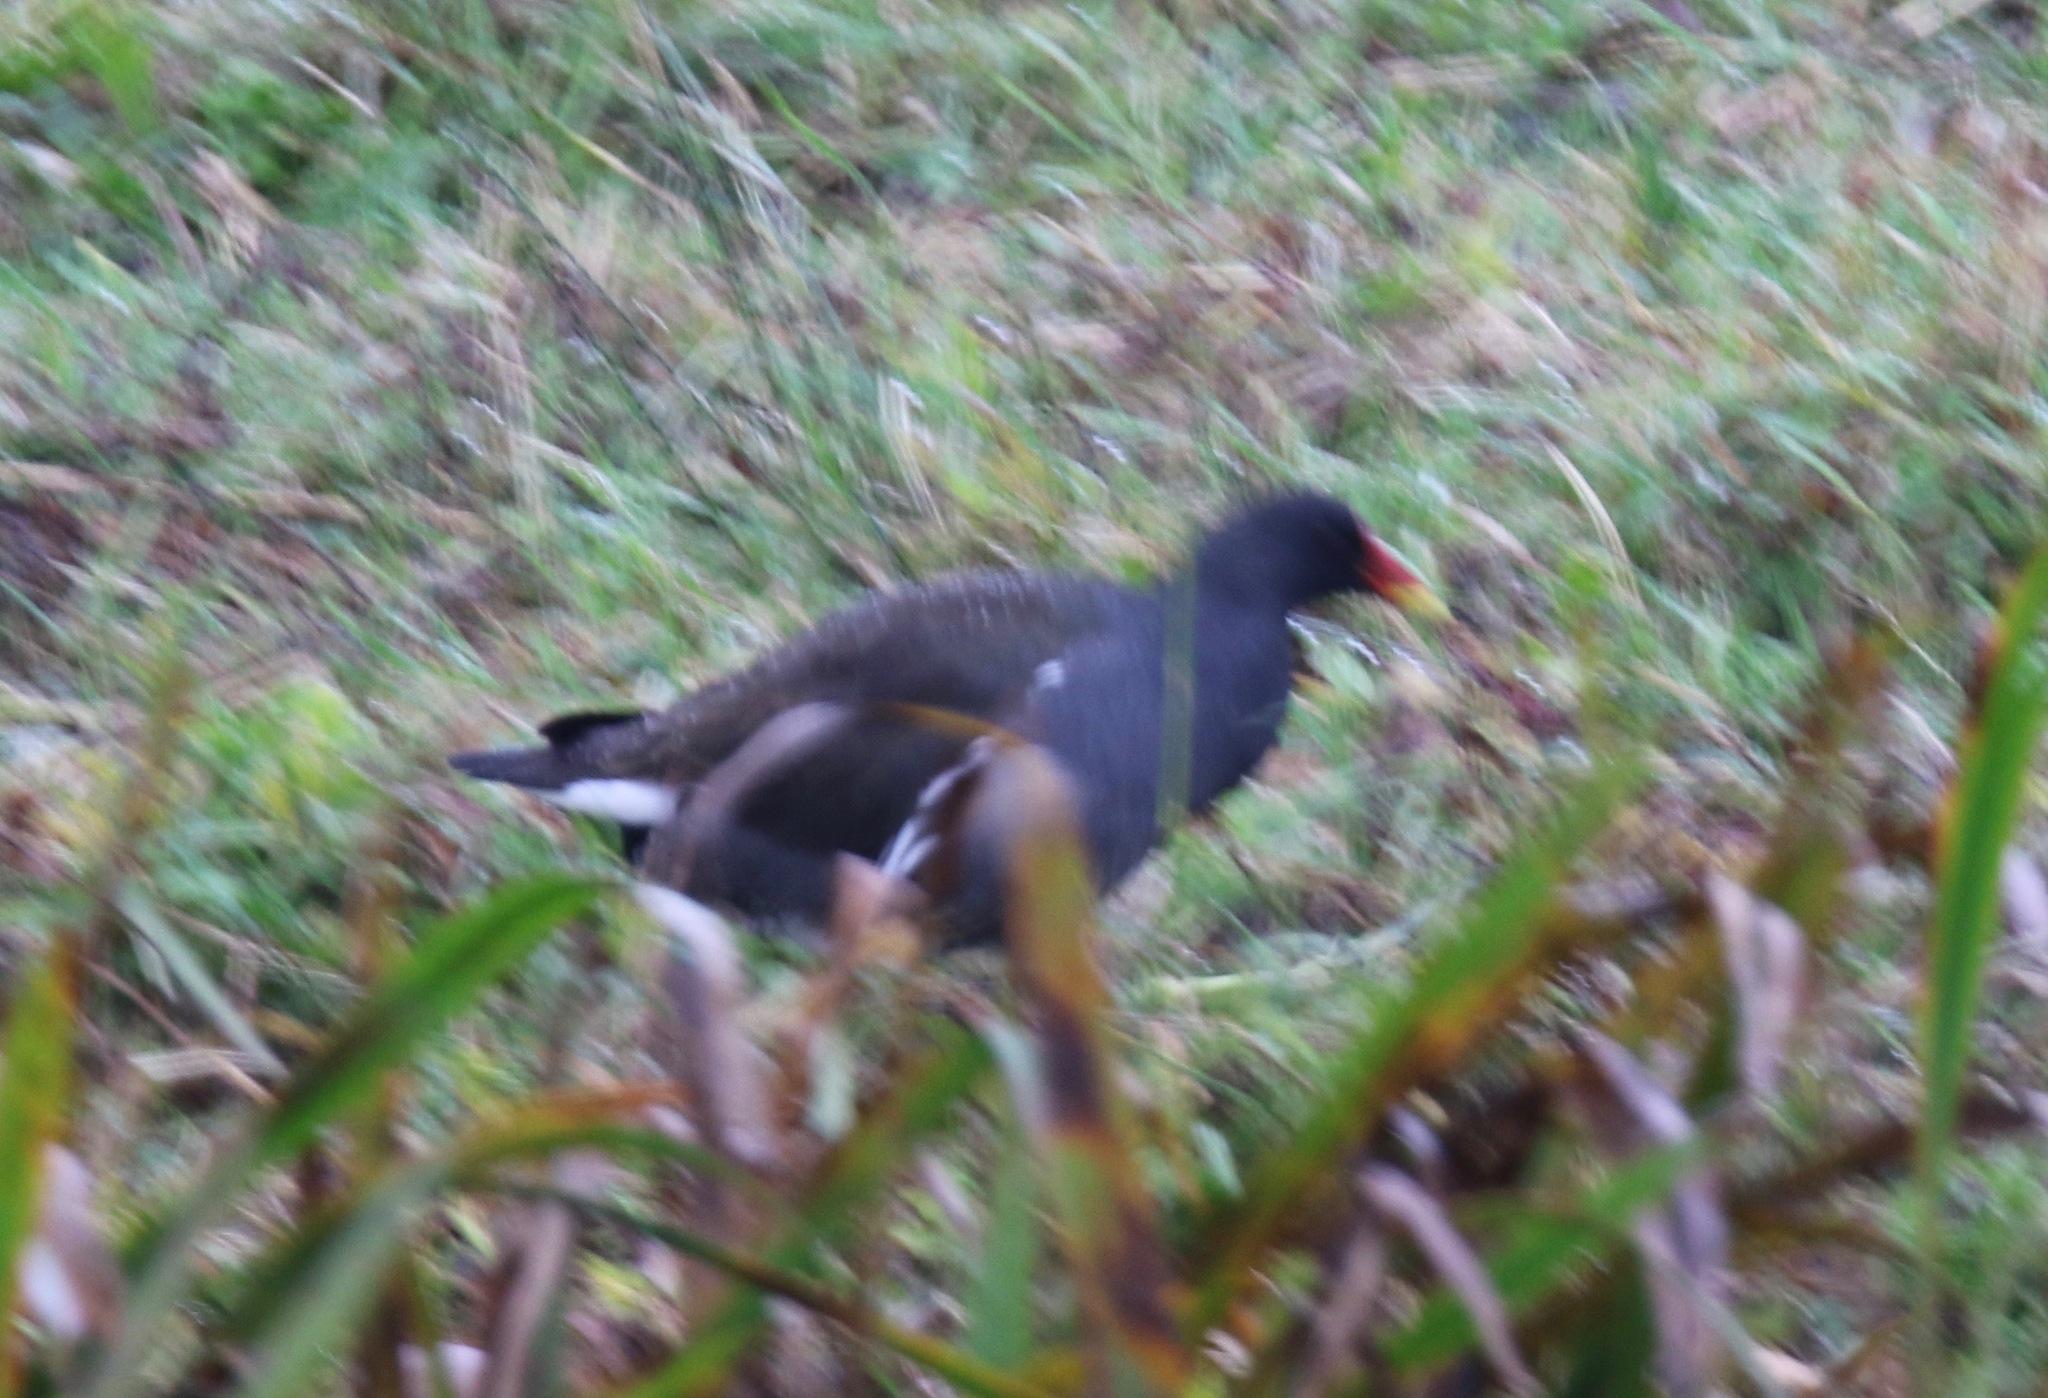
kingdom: Animalia
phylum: Chordata
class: Aves
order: Gruiformes
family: Rallidae
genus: Gallinula
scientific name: Gallinula chloropus
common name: Common moorhen
